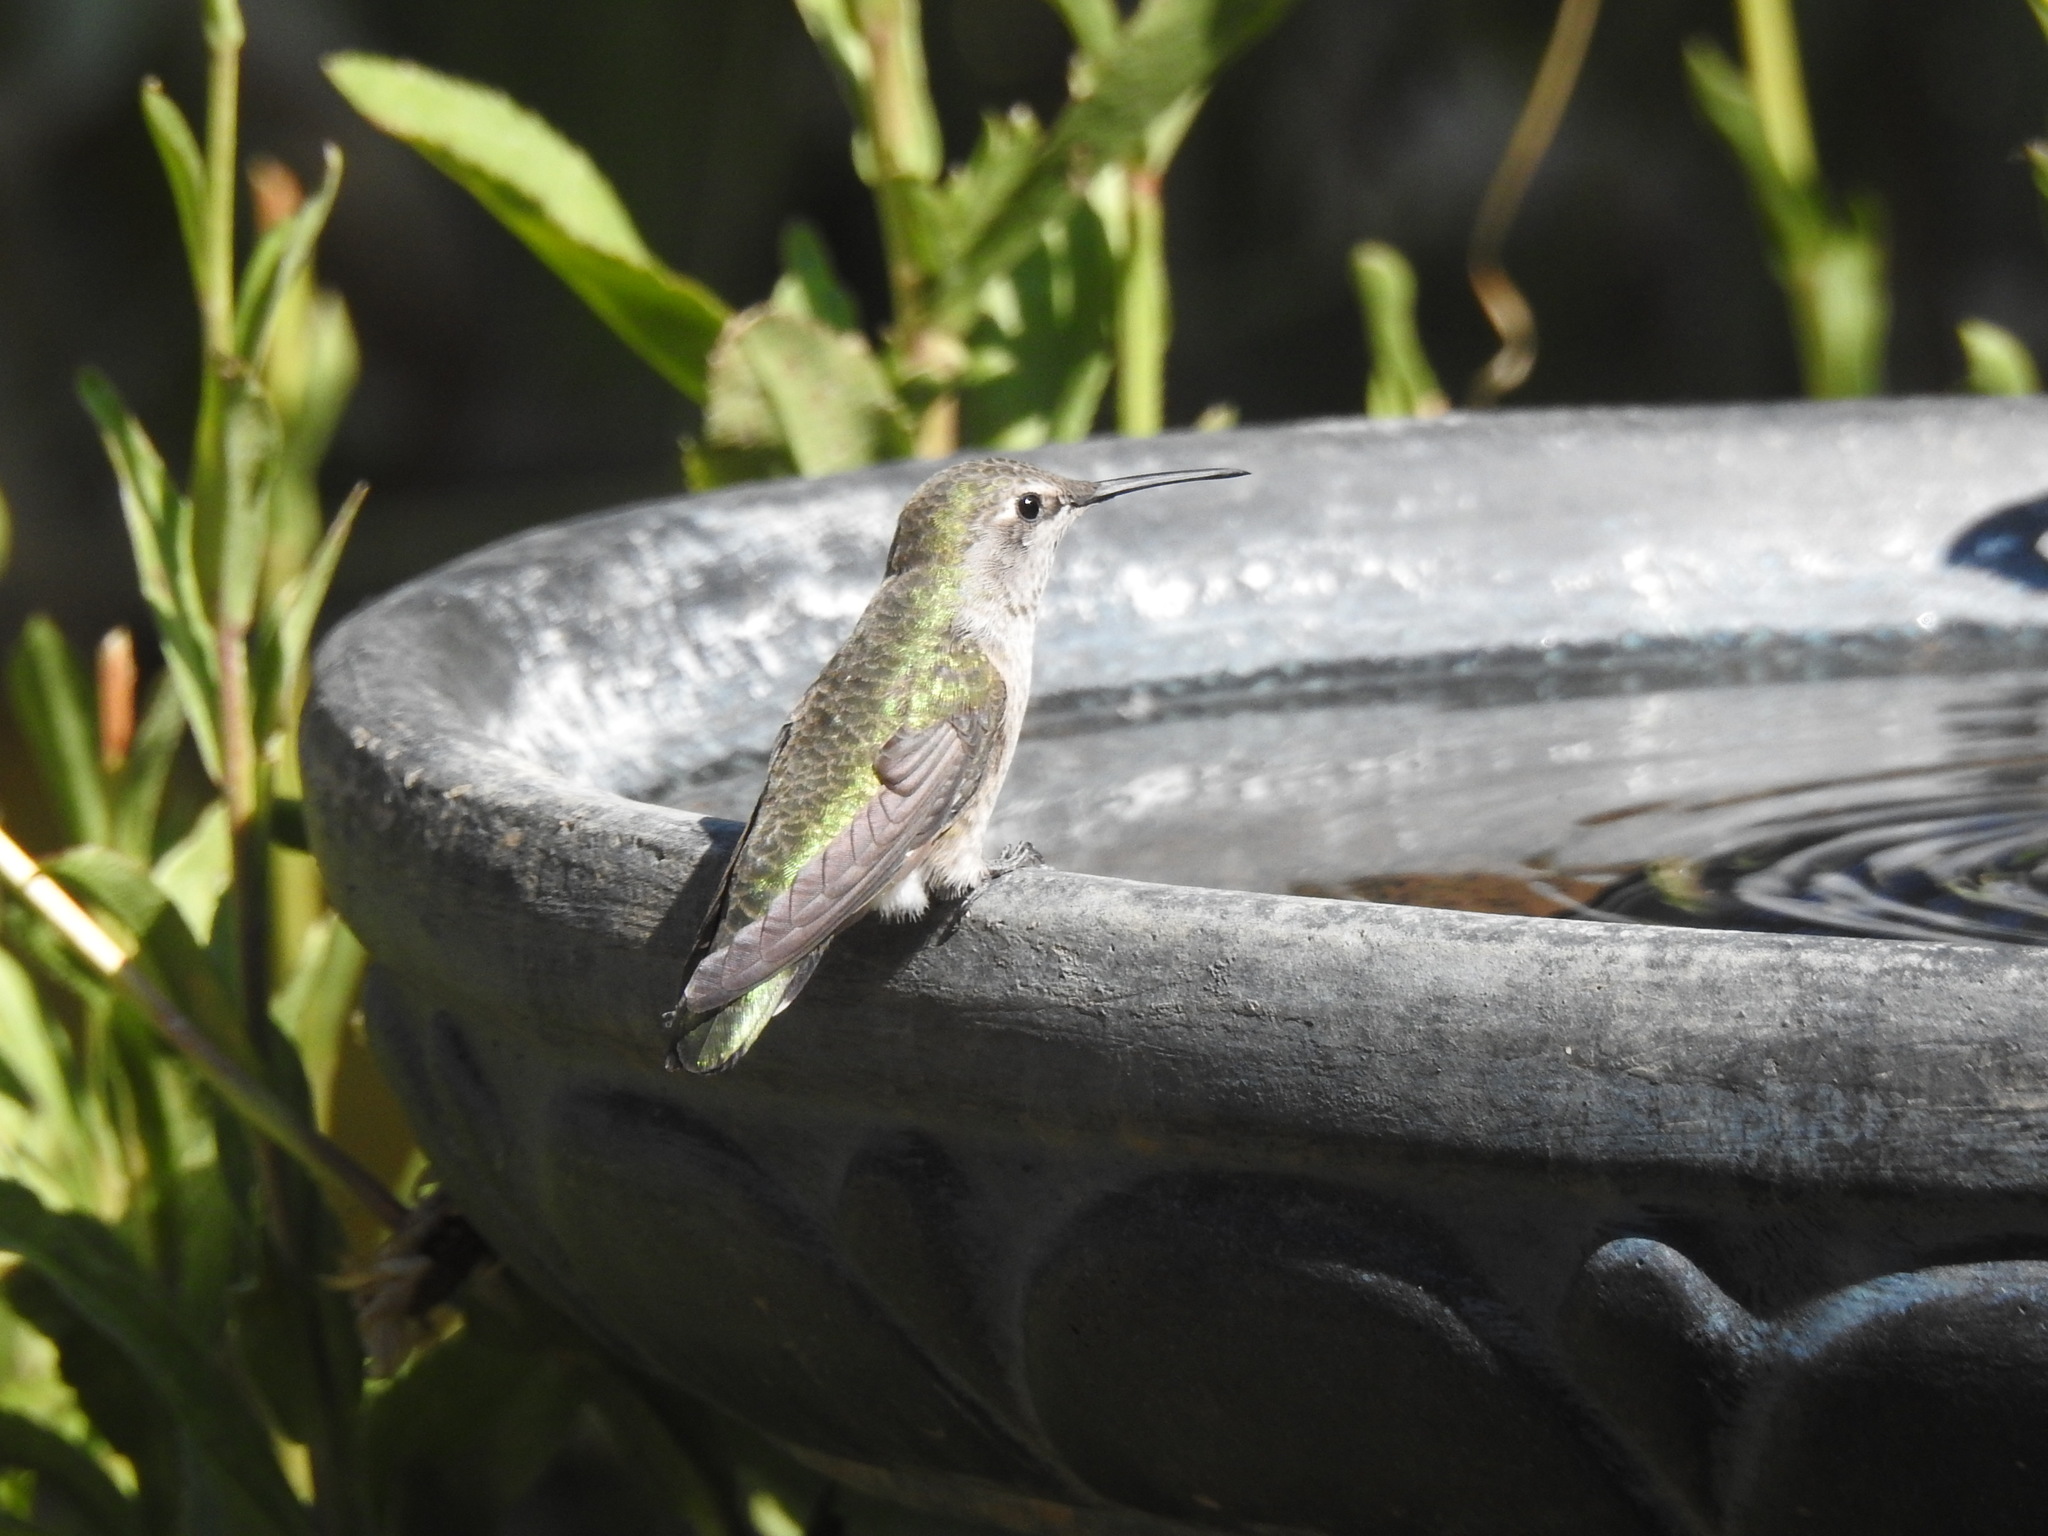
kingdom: Animalia
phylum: Chordata
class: Aves
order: Apodiformes
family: Trochilidae
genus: Calypte
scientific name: Calypte anna
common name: Anna's hummingbird
